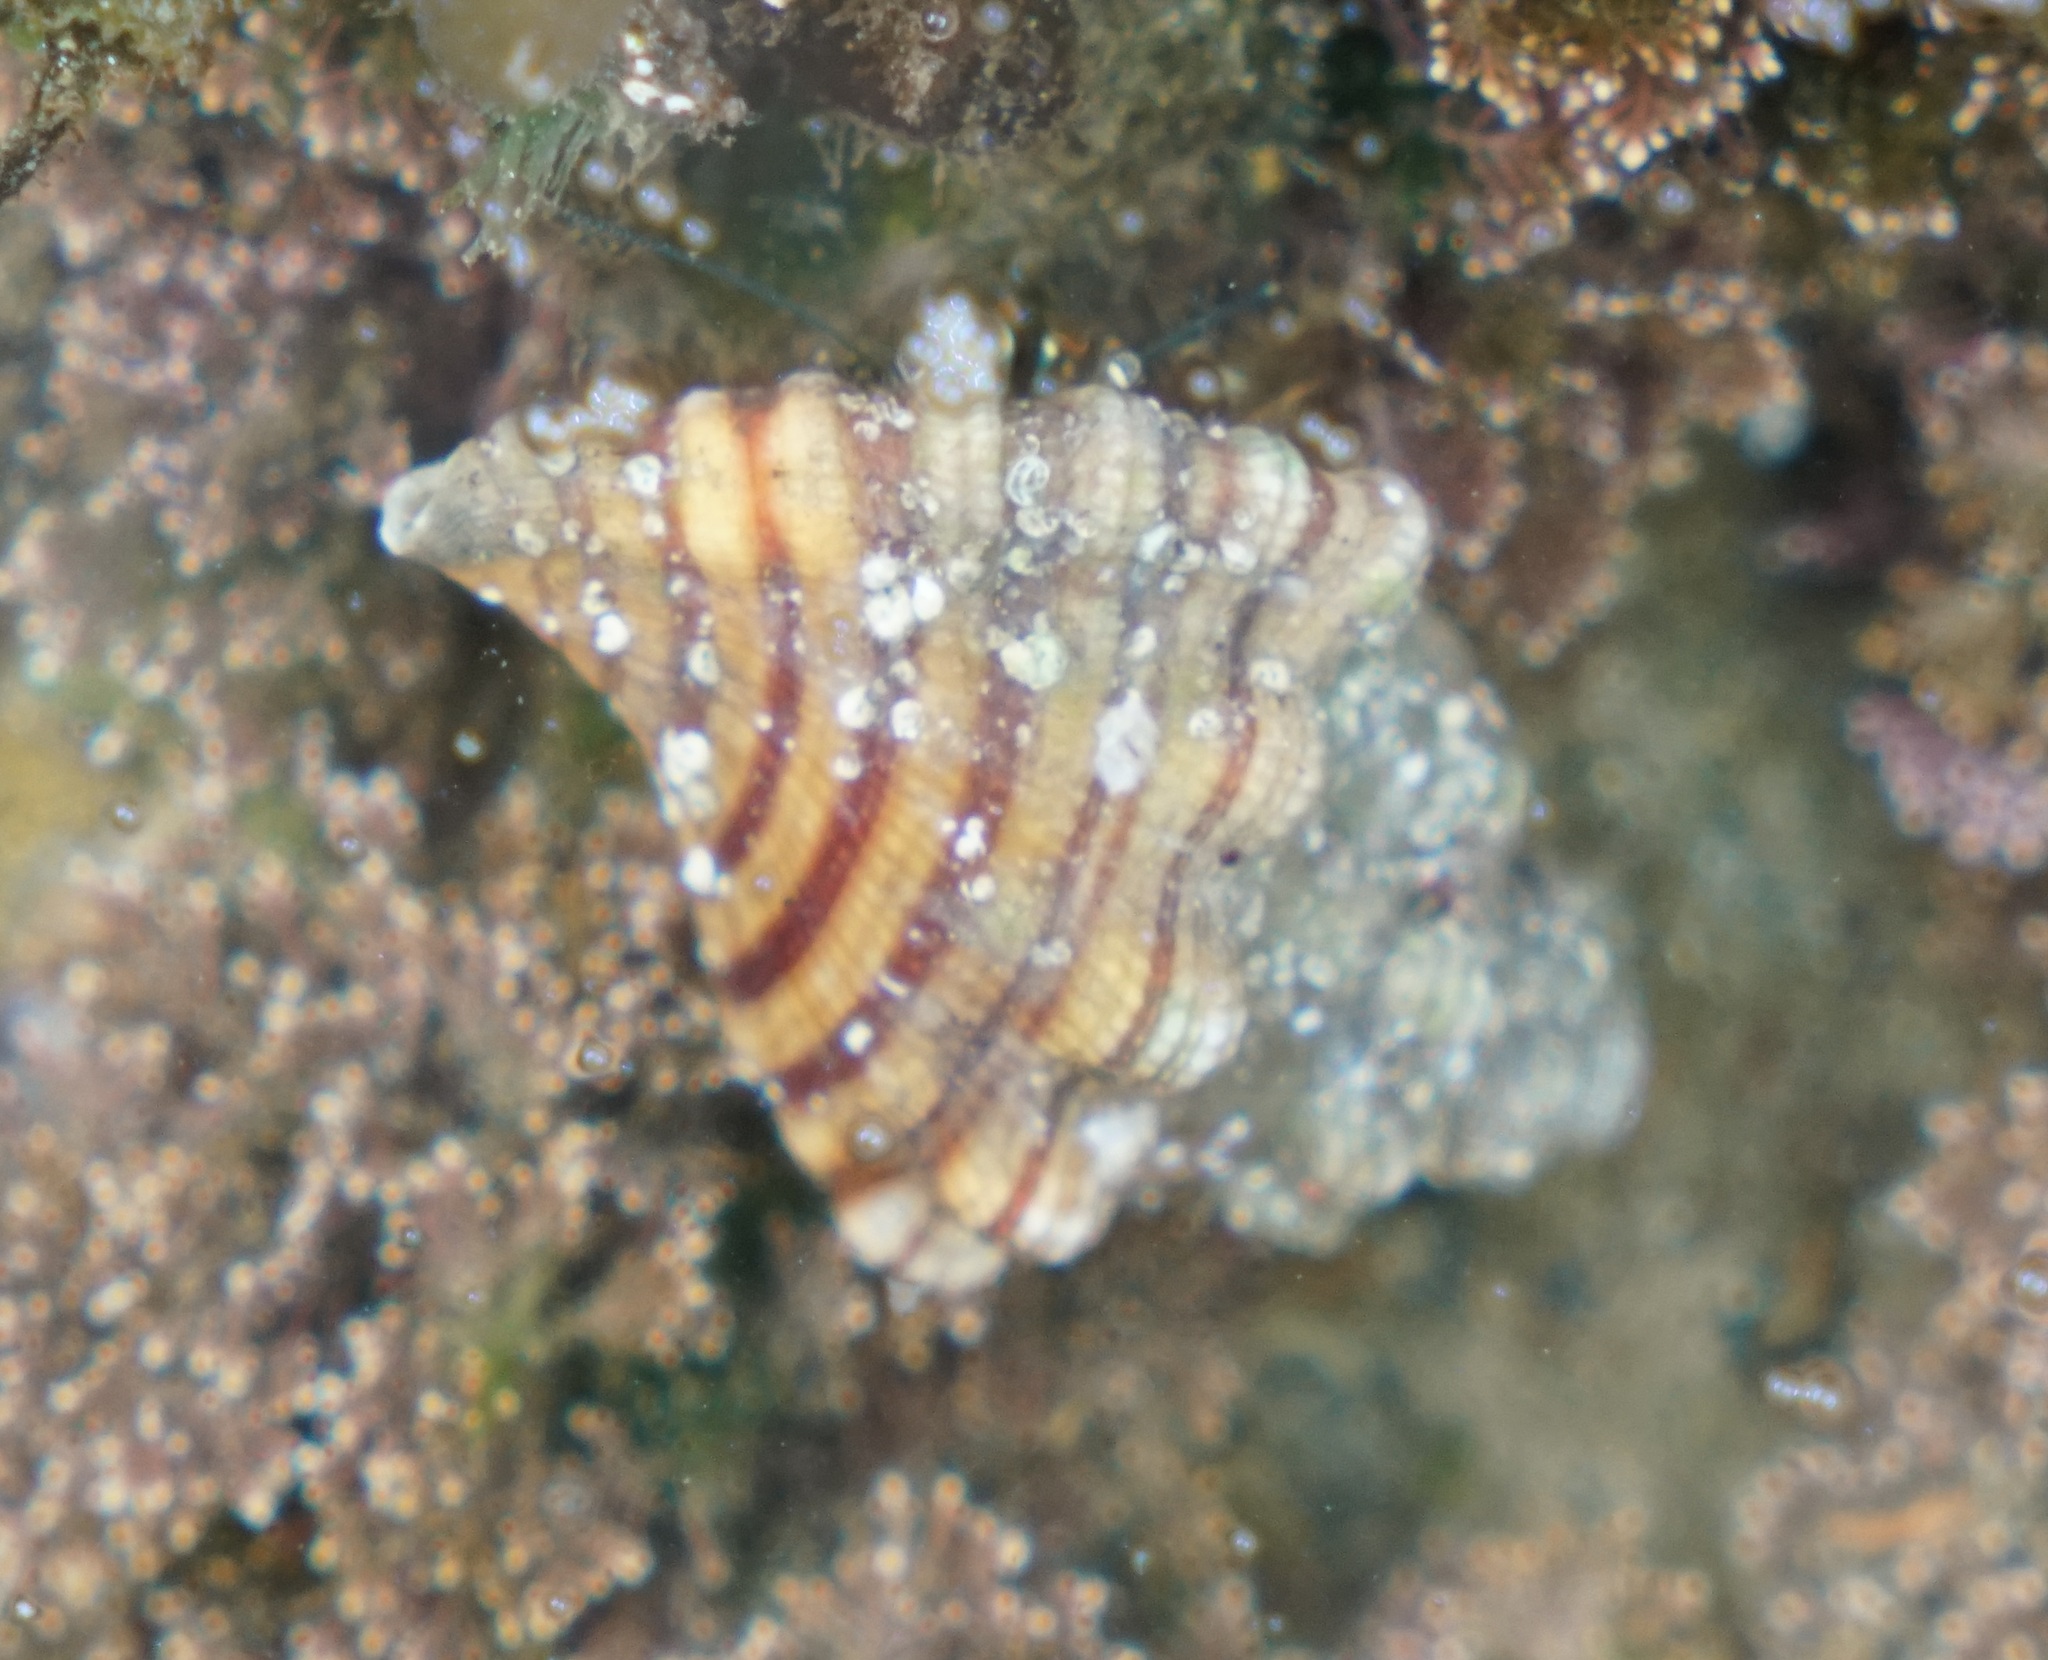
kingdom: Animalia
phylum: Mollusca
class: Gastropoda
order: Littorinimorpha
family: Cymatiidae
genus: Cabestana
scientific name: Cabestana spengleri
